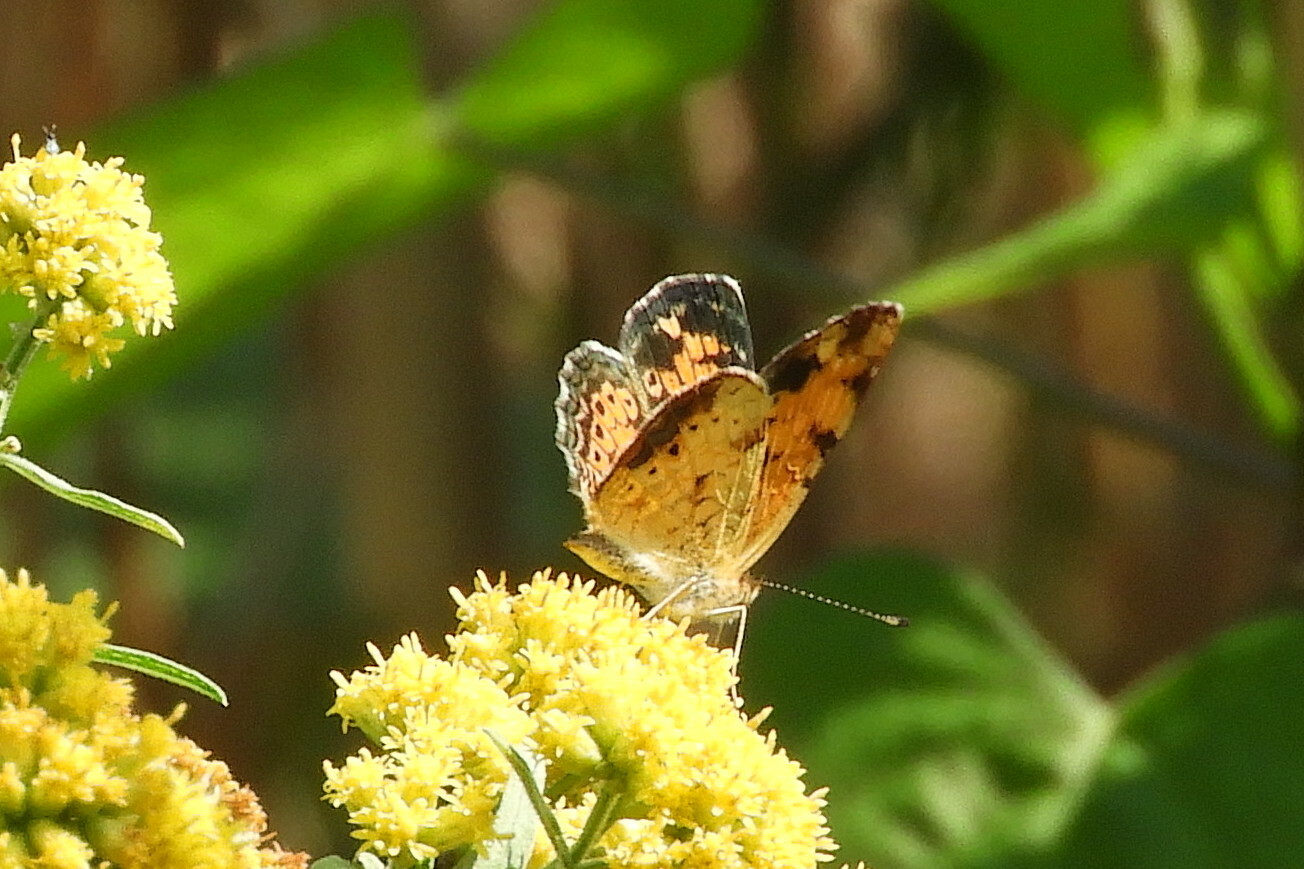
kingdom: Animalia
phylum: Arthropoda
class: Insecta
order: Lepidoptera
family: Nymphalidae
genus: Phyciodes
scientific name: Phyciodes tharos
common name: Pearl crescent
